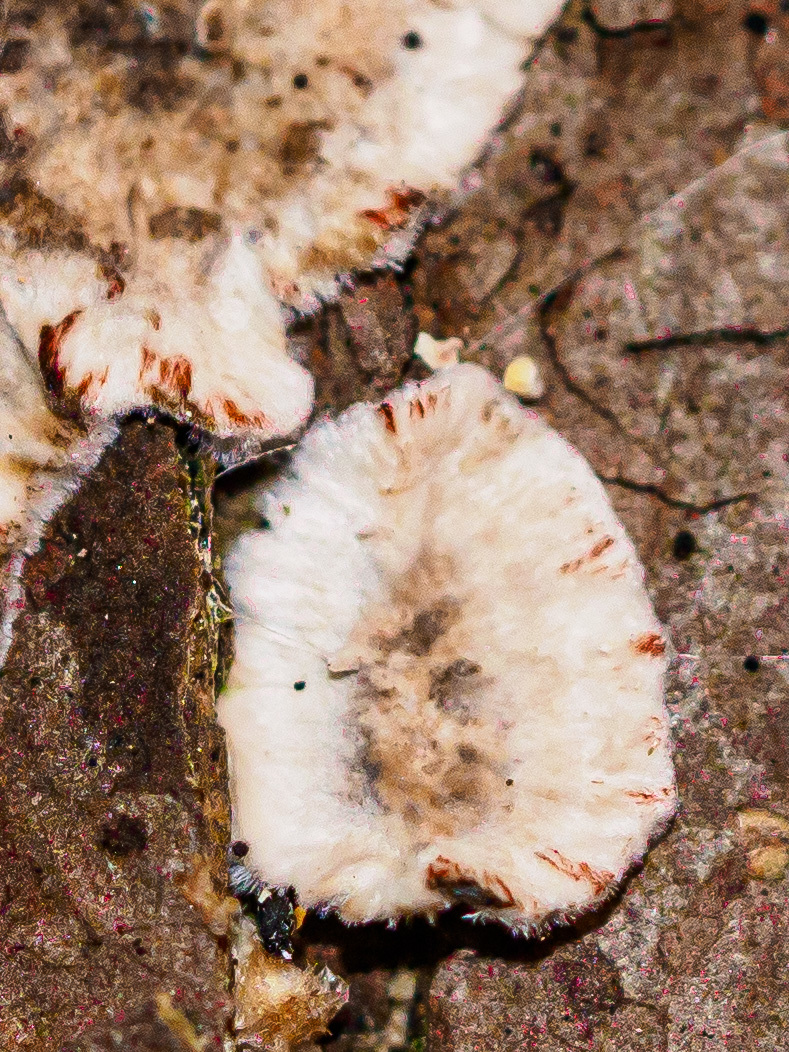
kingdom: Fungi
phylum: Basidiomycota
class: Agaricomycetes
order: Russulales
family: Stereaceae
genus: Stereum
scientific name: Stereum sanguinolentum
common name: Bleeding conifer crust
